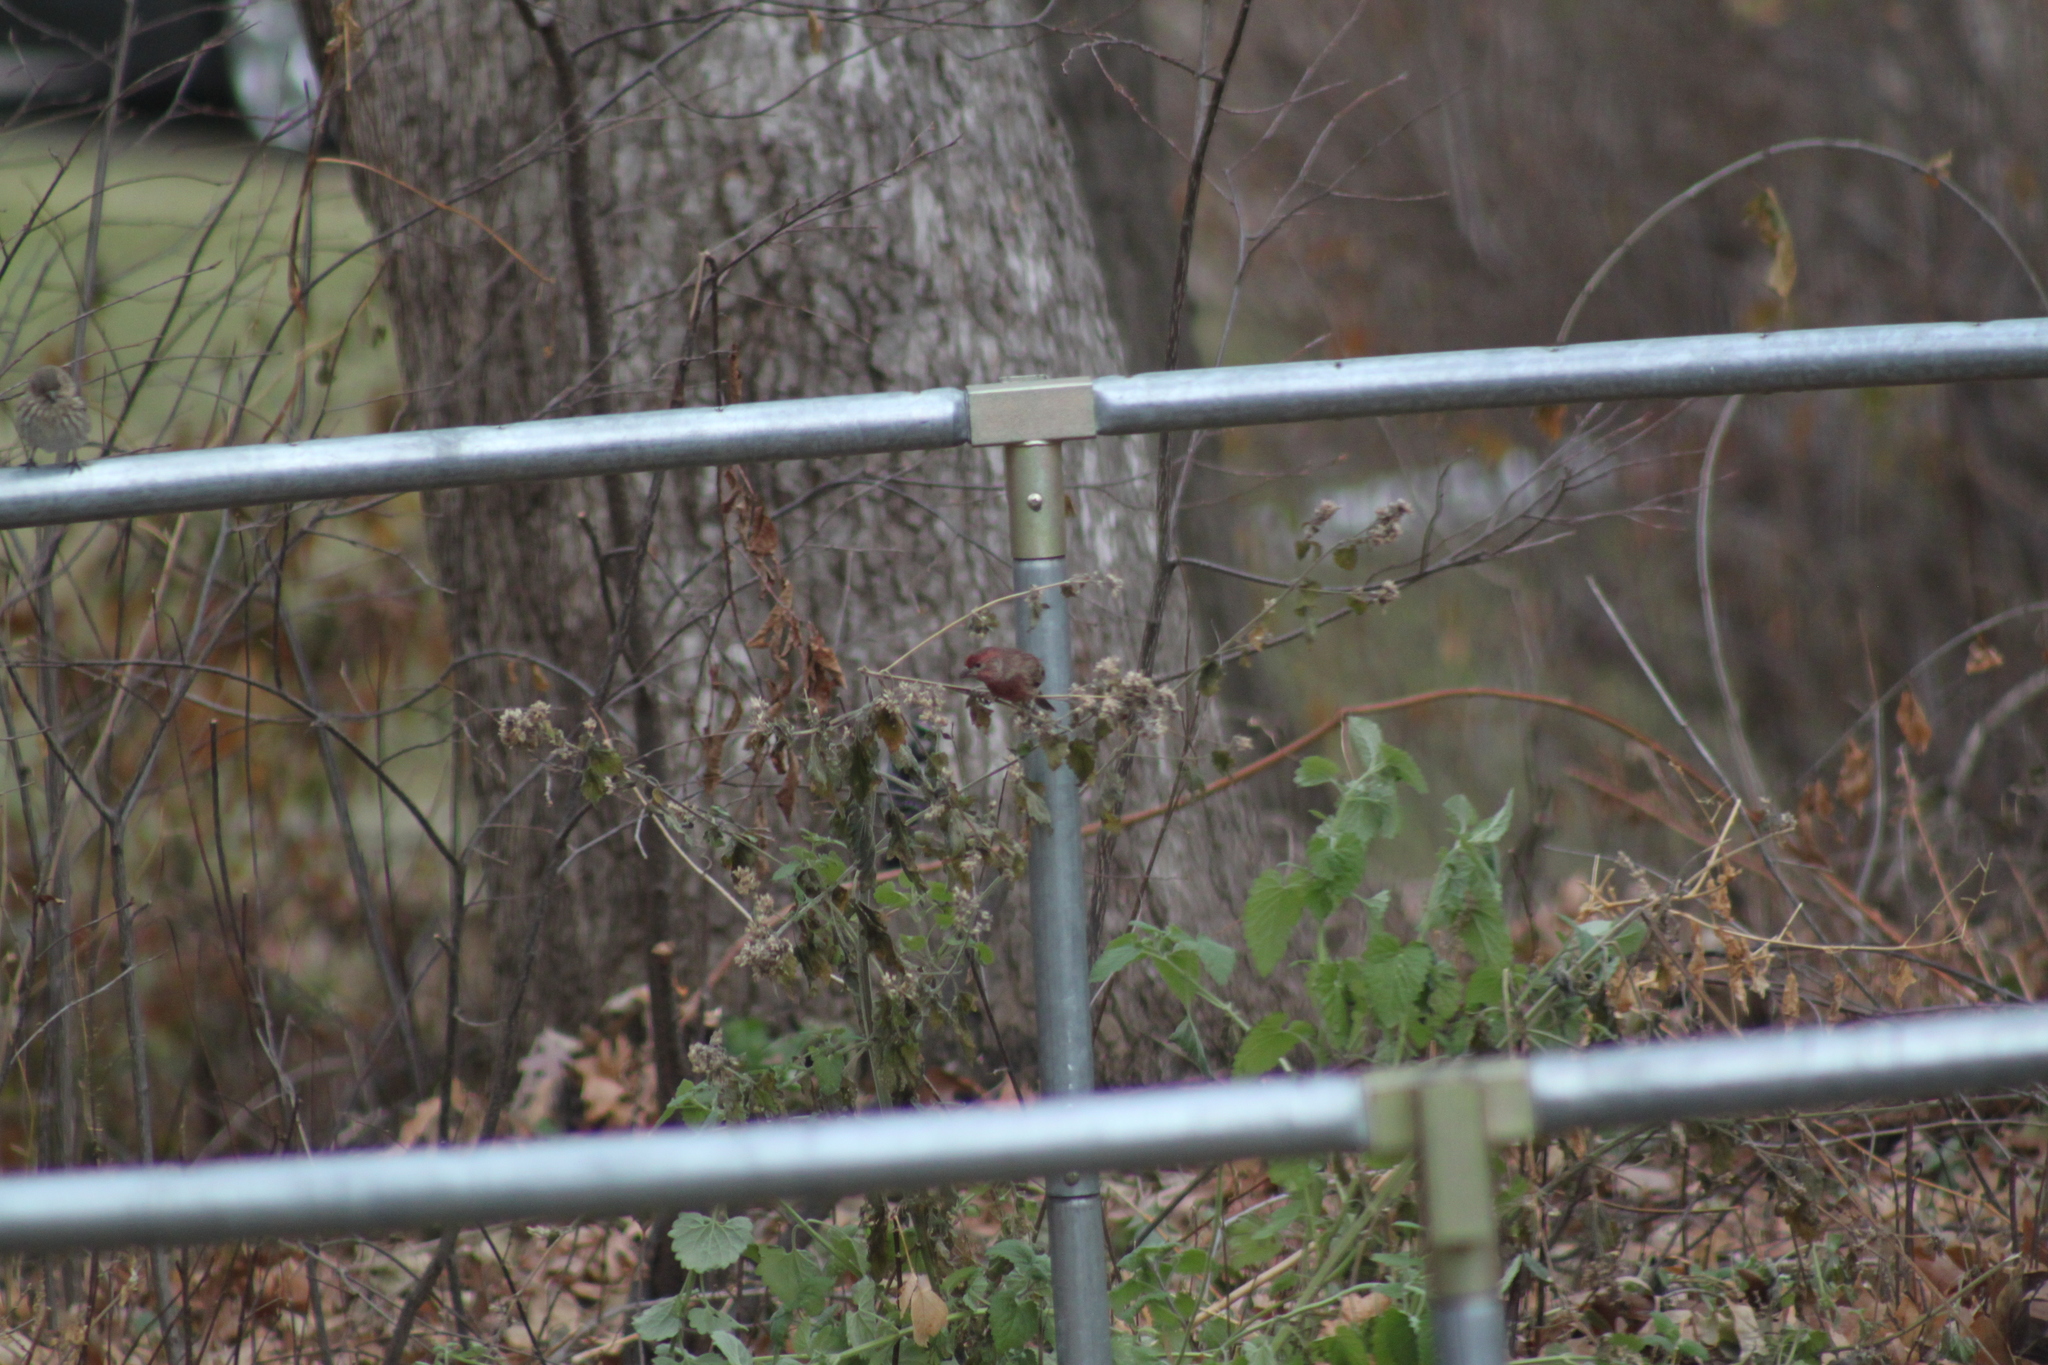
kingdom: Animalia
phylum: Chordata
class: Aves
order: Passeriformes
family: Fringillidae
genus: Haemorhous
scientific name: Haemorhous mexicanus
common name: House finch
